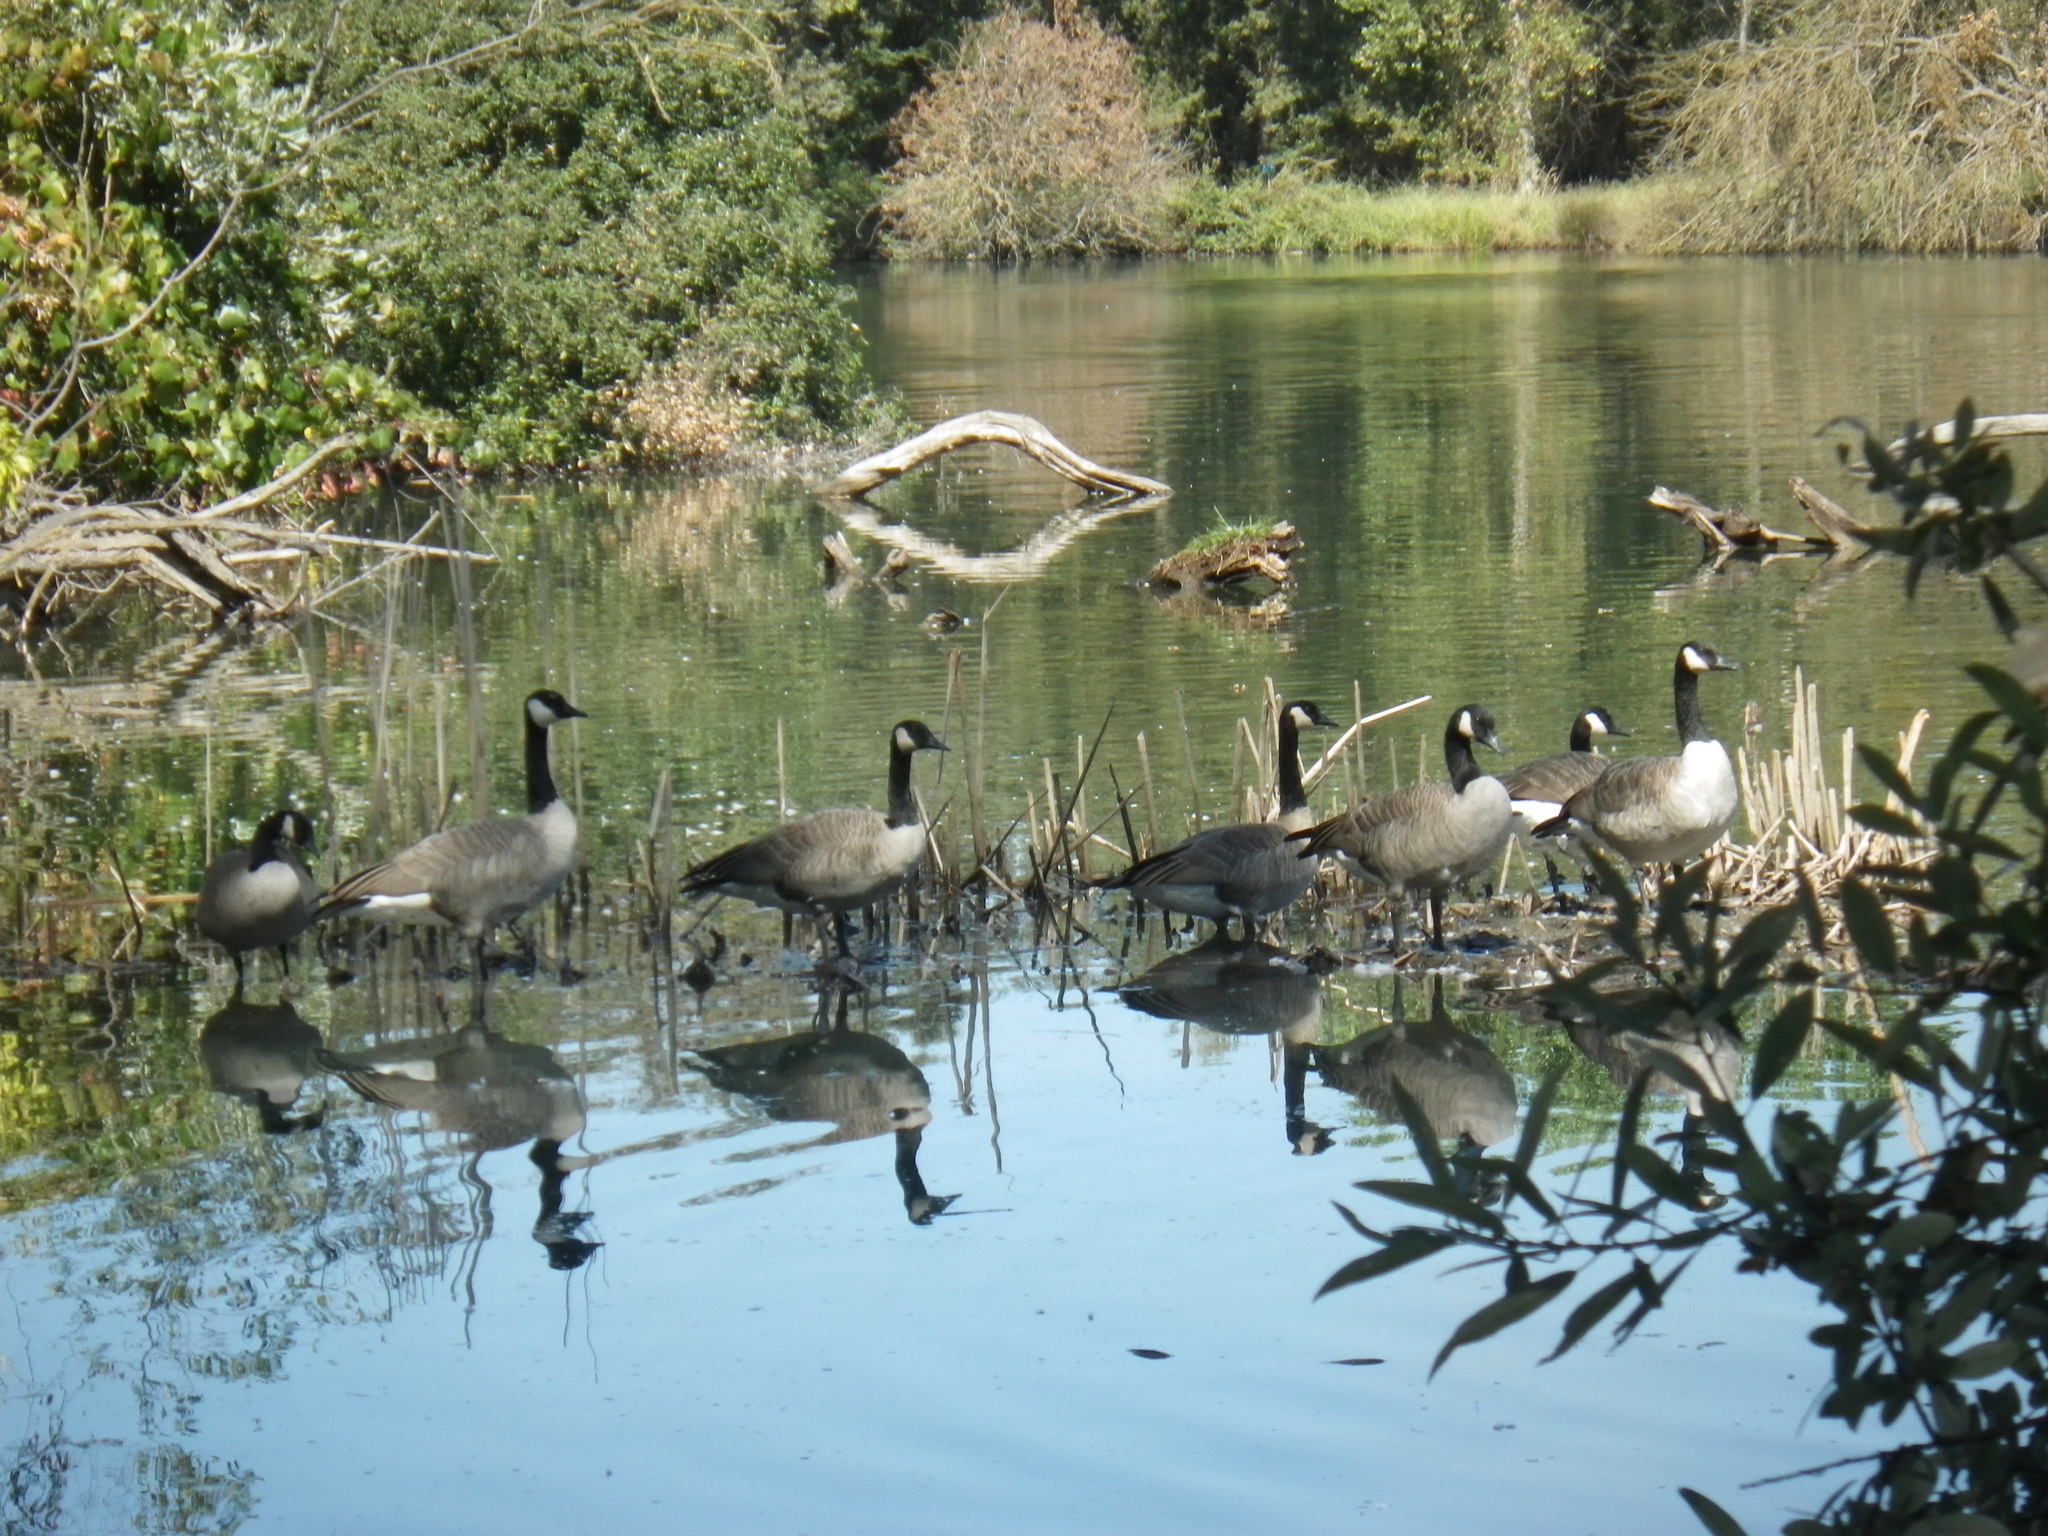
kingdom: Animalia
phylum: Chordata
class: Aves
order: Anseriformes
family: Anatidae
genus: Branta
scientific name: Branta canadensis
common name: Canada goose
